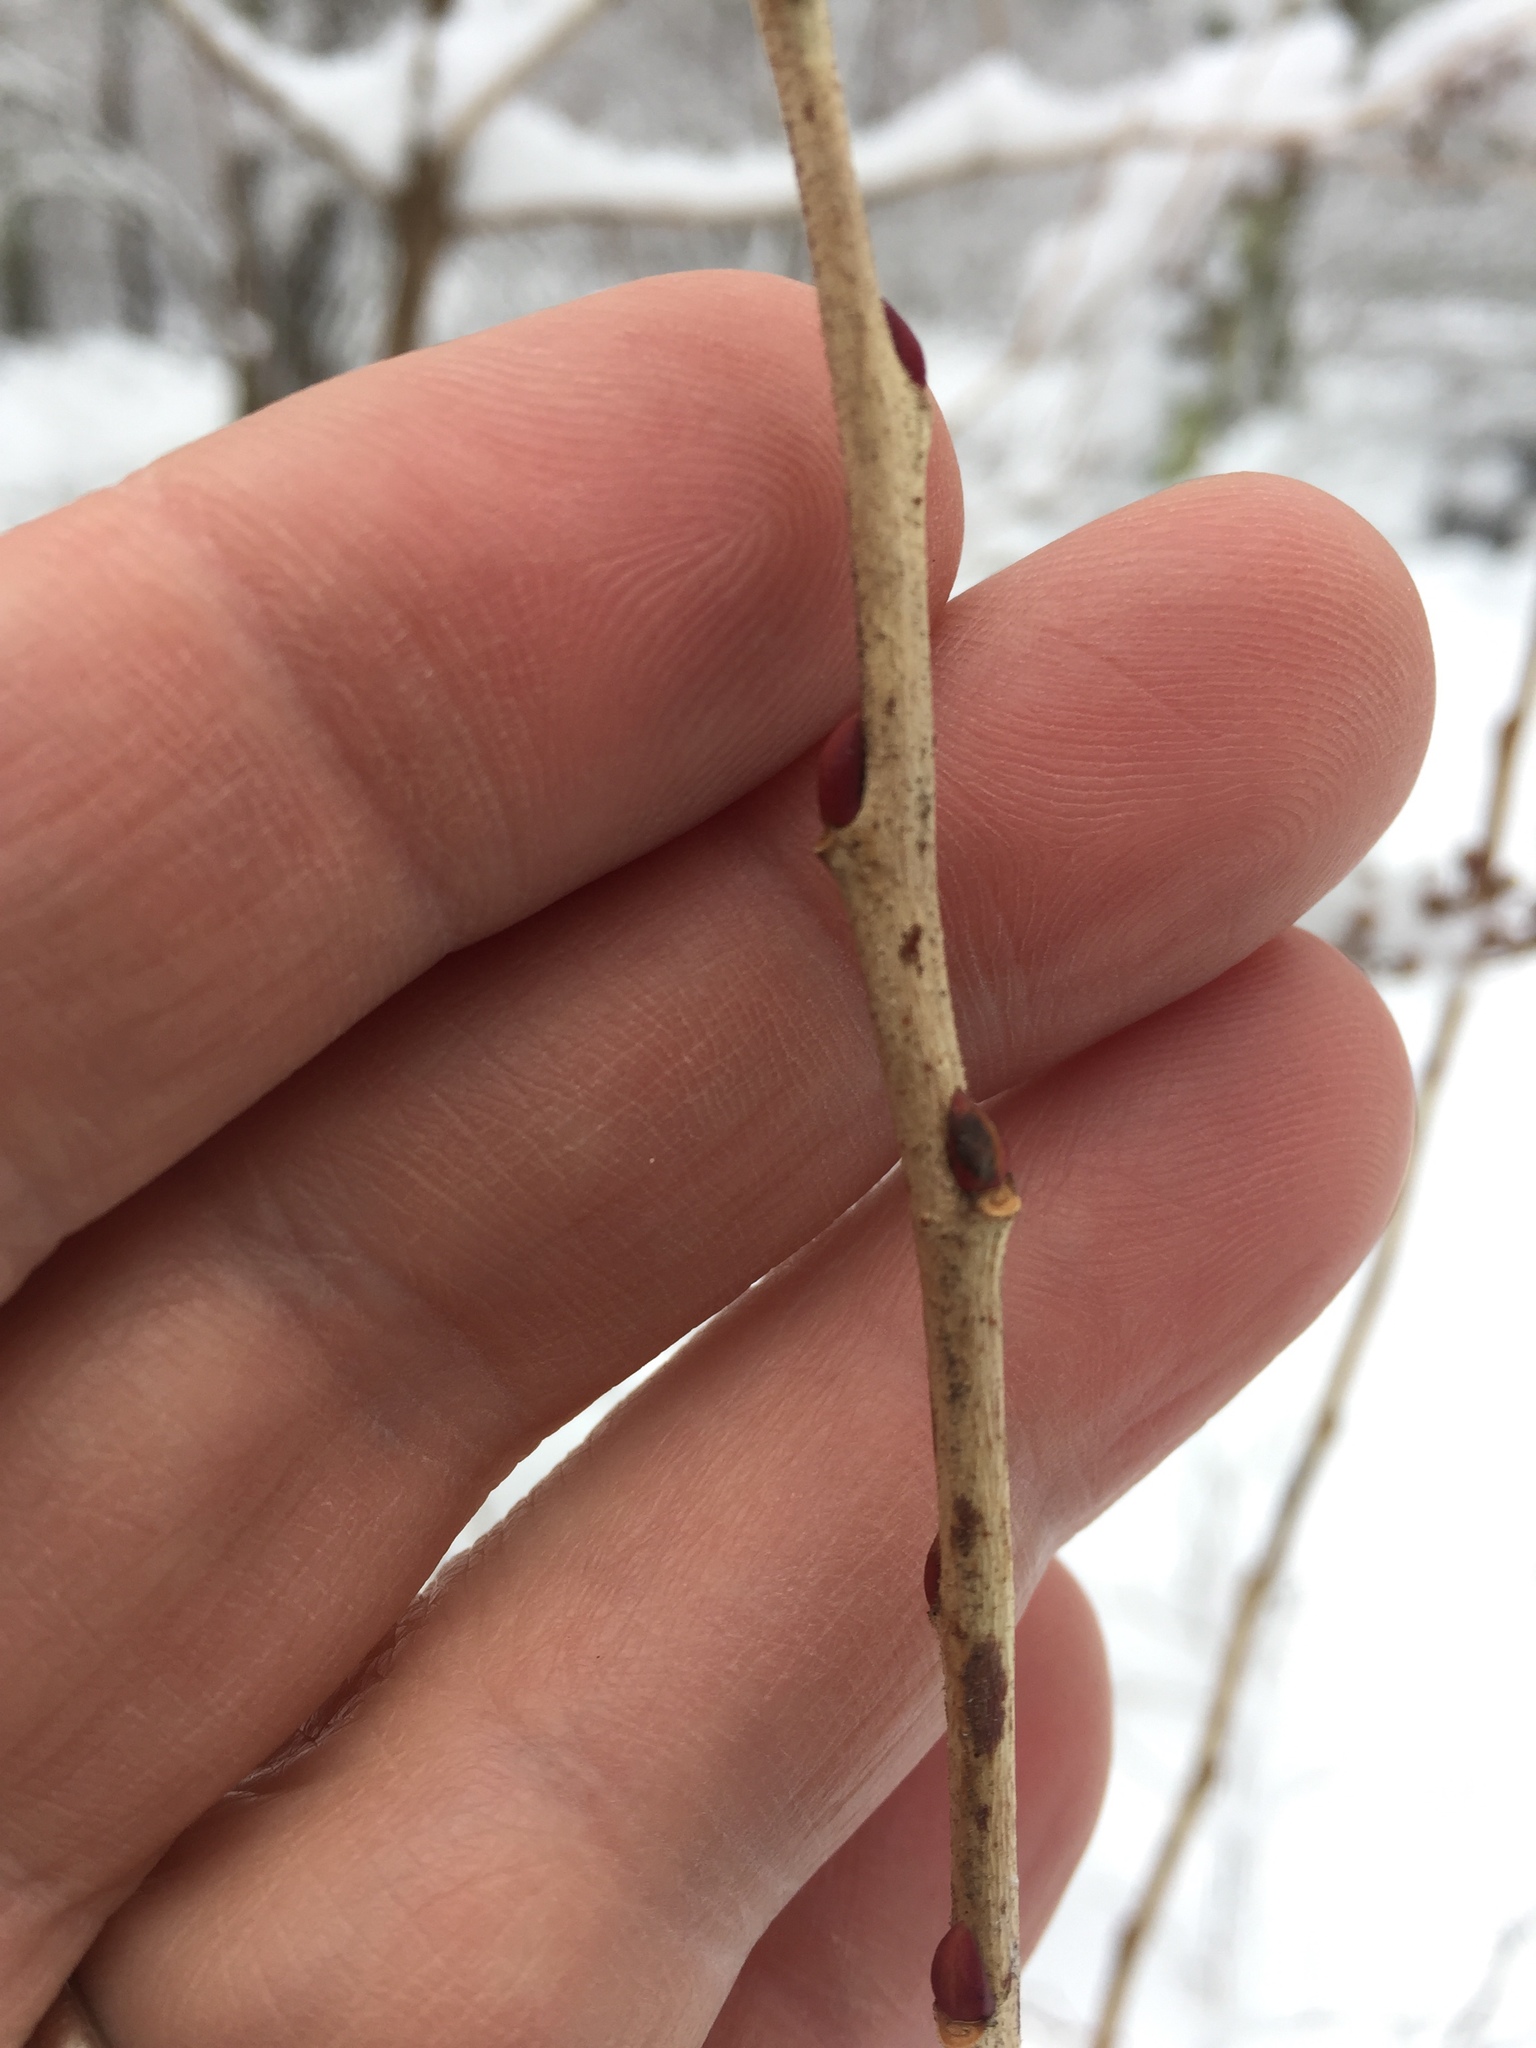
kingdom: Plantae
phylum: Tracheophyta
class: Magnoliopsida
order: Ericales
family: Ericaceae
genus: Lyonia
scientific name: Lyonia ligustrina
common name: Maleberry
